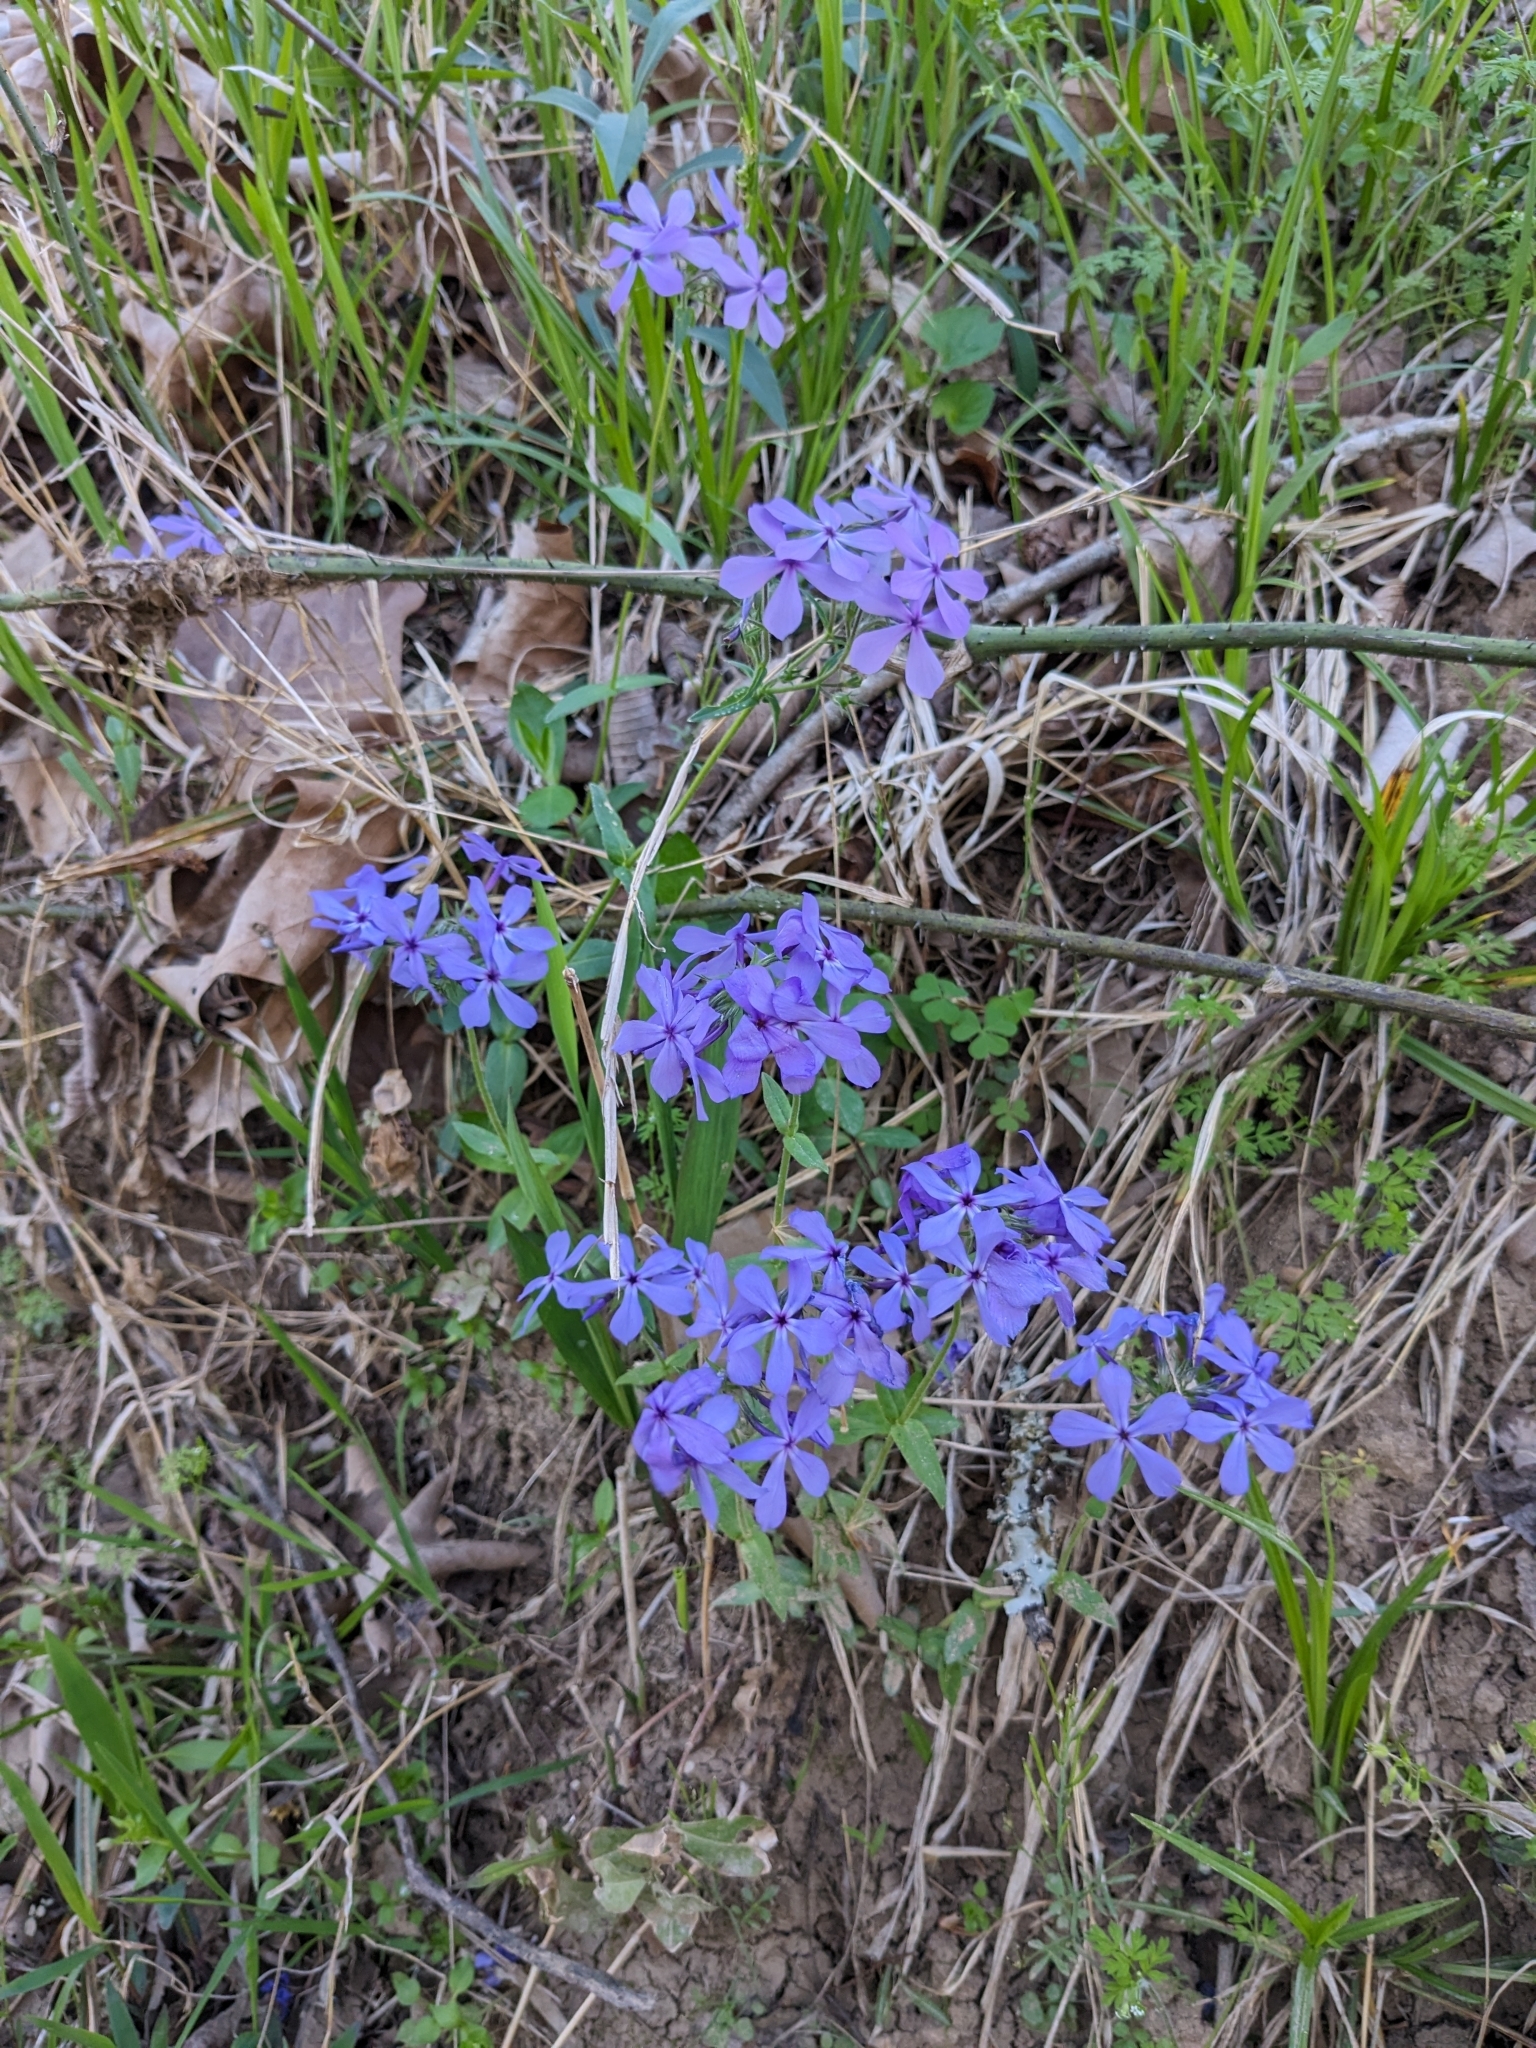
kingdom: Plantae
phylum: Tracheophyta
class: Magnoliopsida
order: Ericales
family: Polemoniaceae
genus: Phlox
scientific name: Phlox divaricata
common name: Blue phlox
